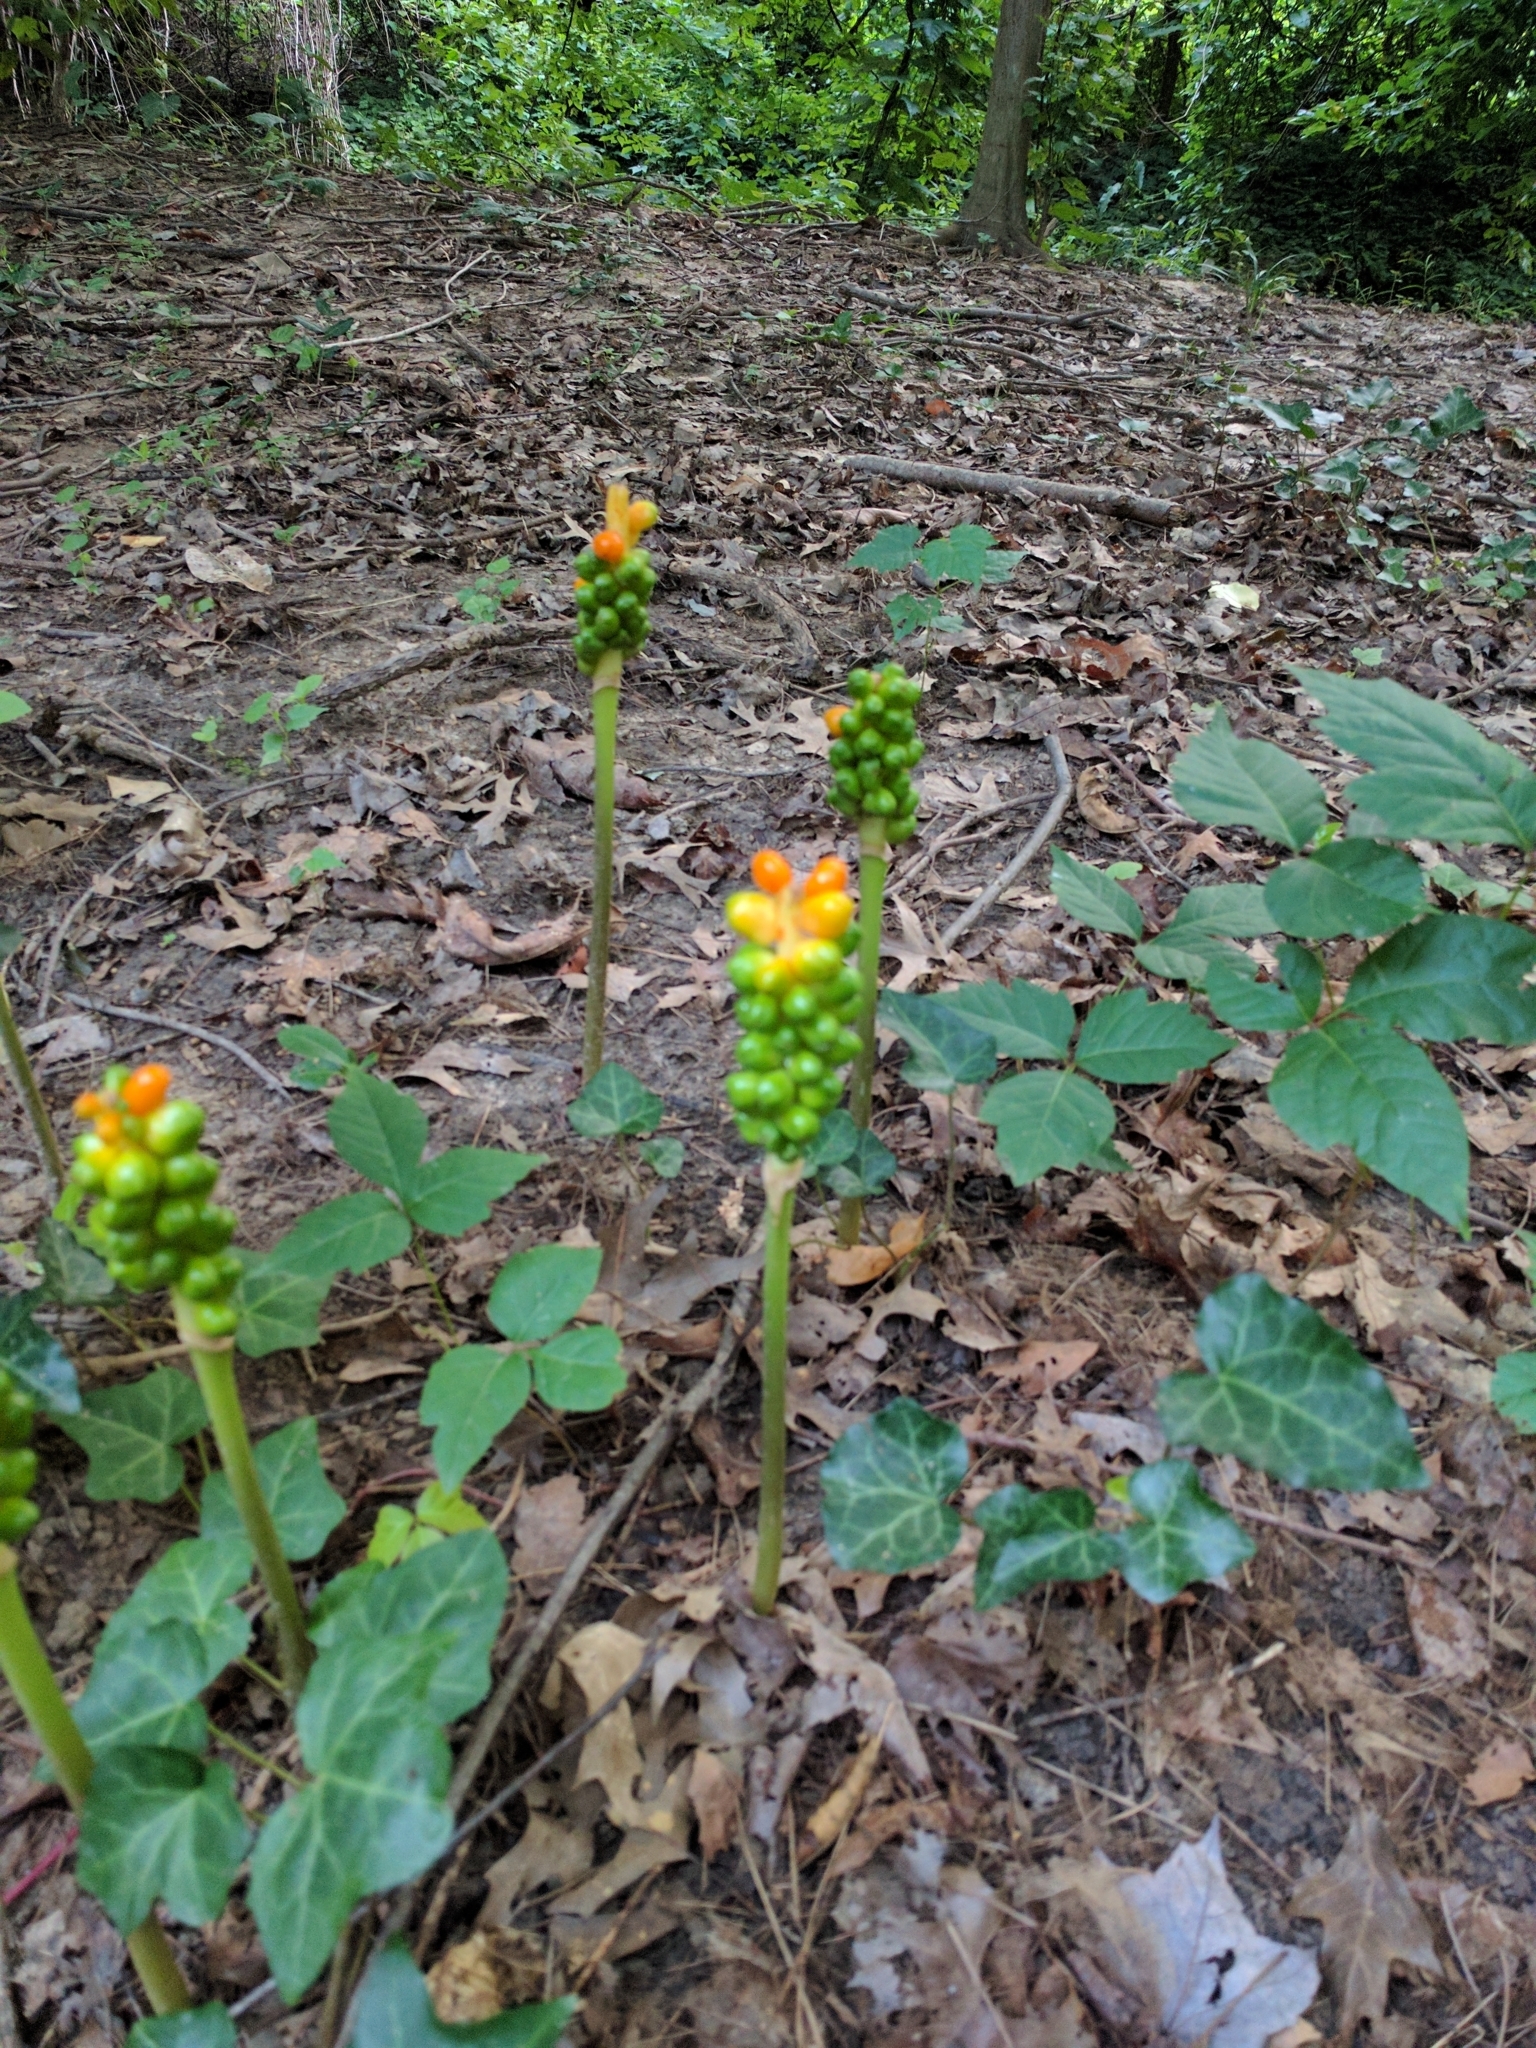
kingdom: Plantae
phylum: Tracheophyta
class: Liliopsida
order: Alismatales
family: Araceae
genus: Arum
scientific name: Arum italicum
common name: Italian lords-and-ladies
